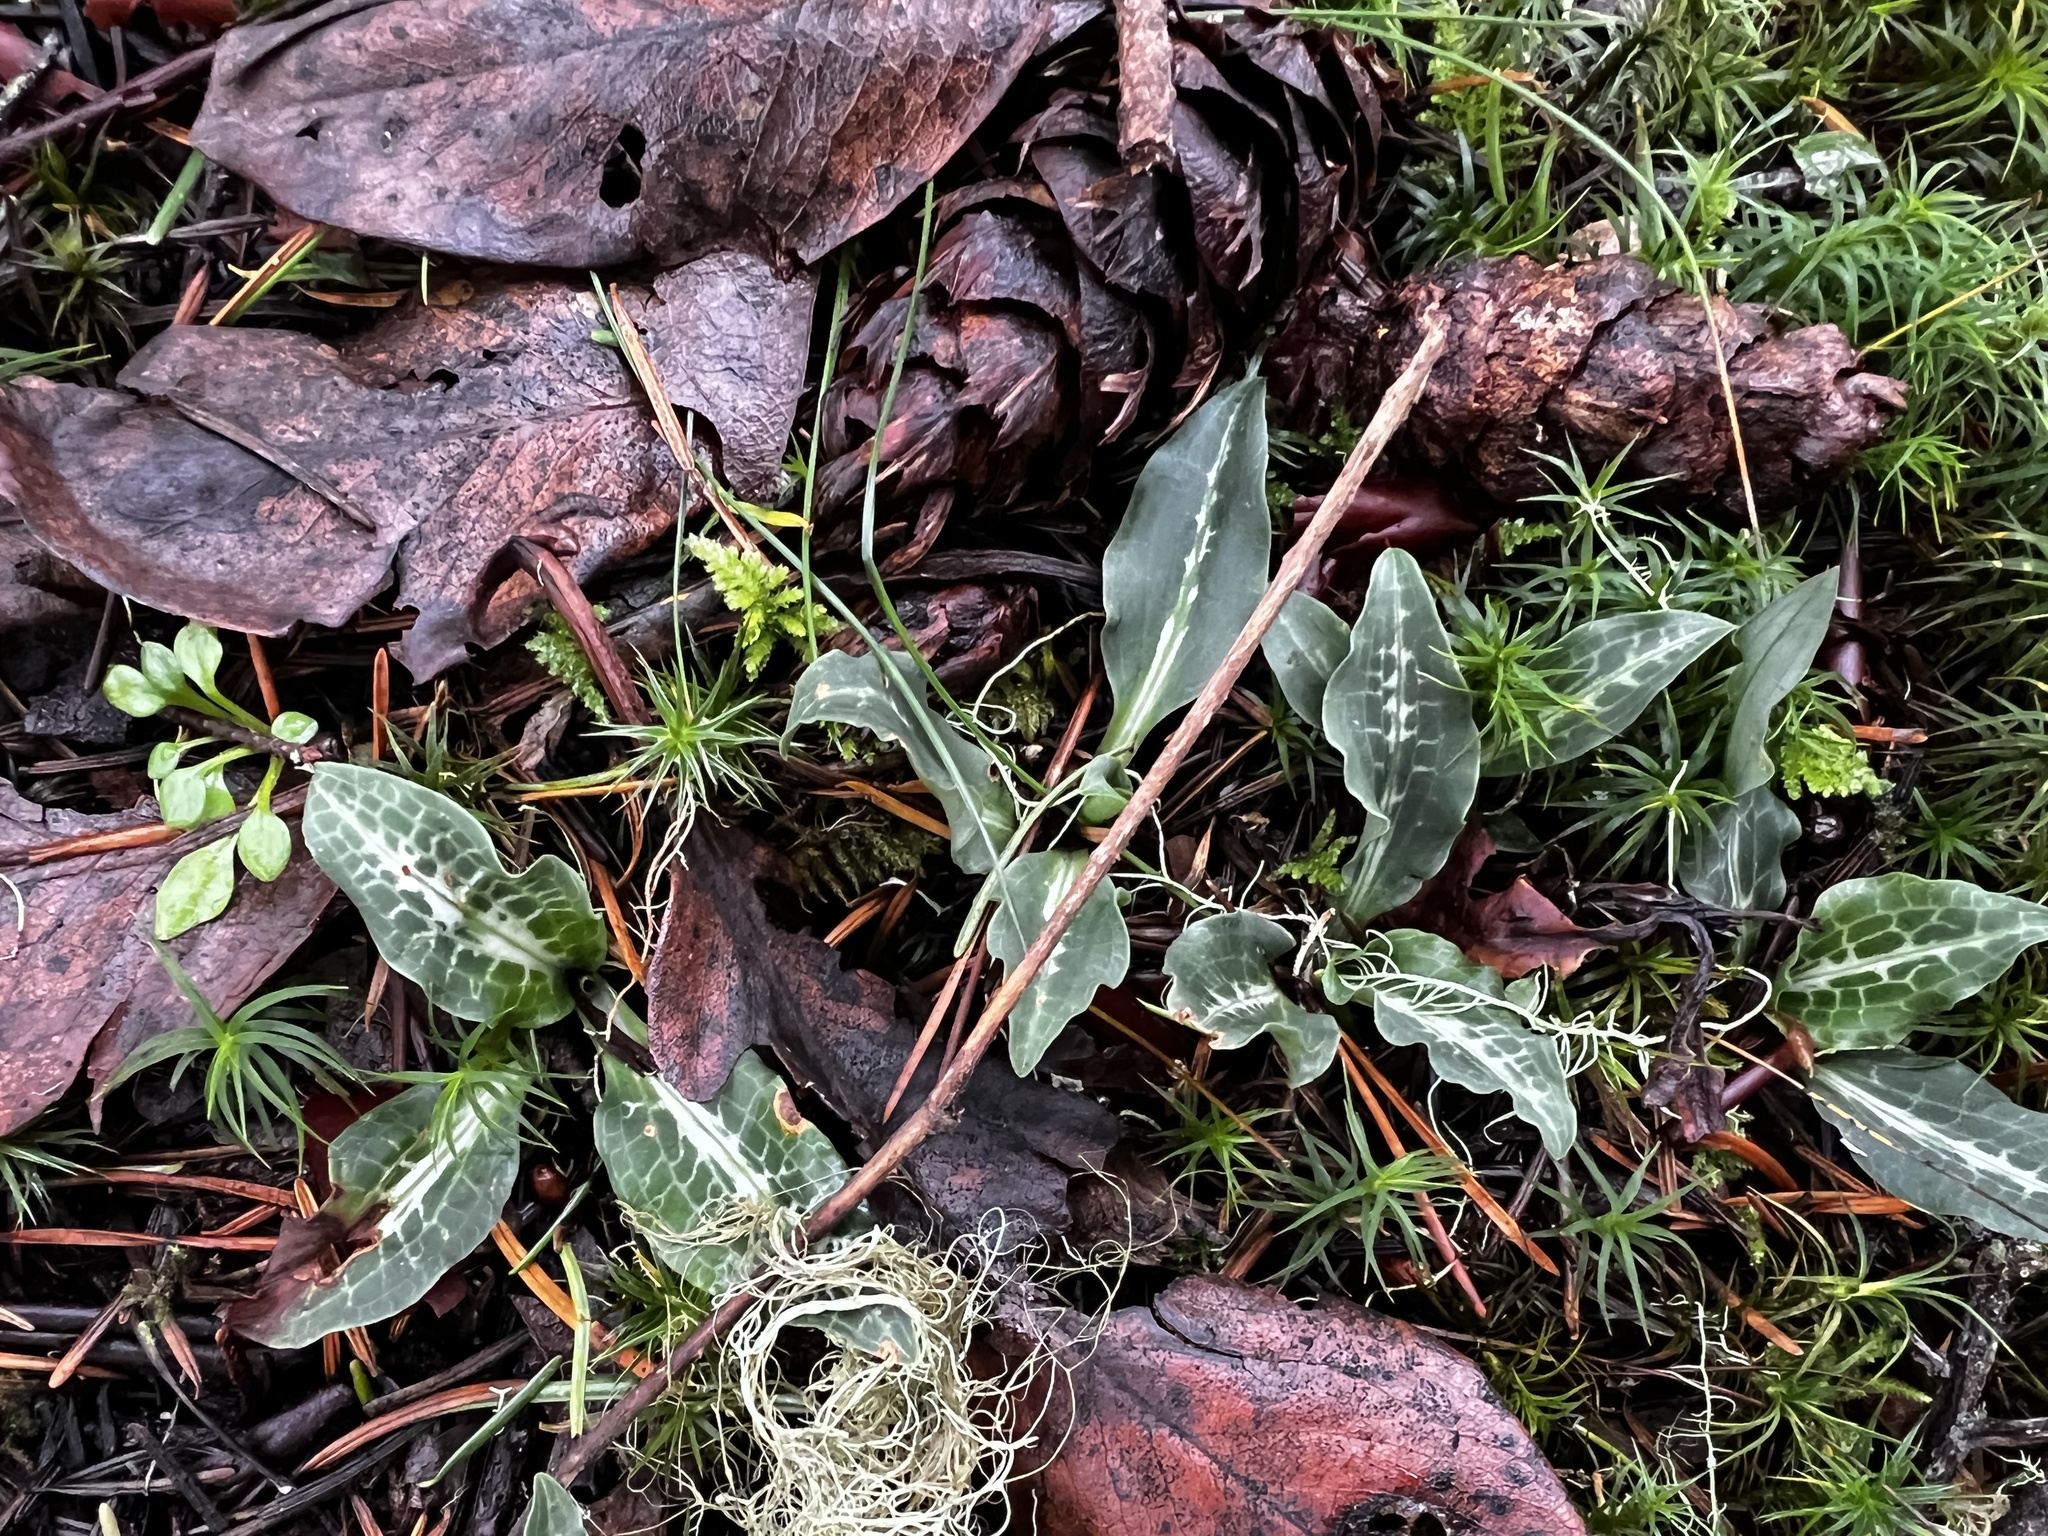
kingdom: Plantae
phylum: Tracheophyta
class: Liliopsida
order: Asparagales
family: Orchidaceae
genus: Goodyera
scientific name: Goodyera oblongifolia
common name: Giant rattlesnake-plantain
